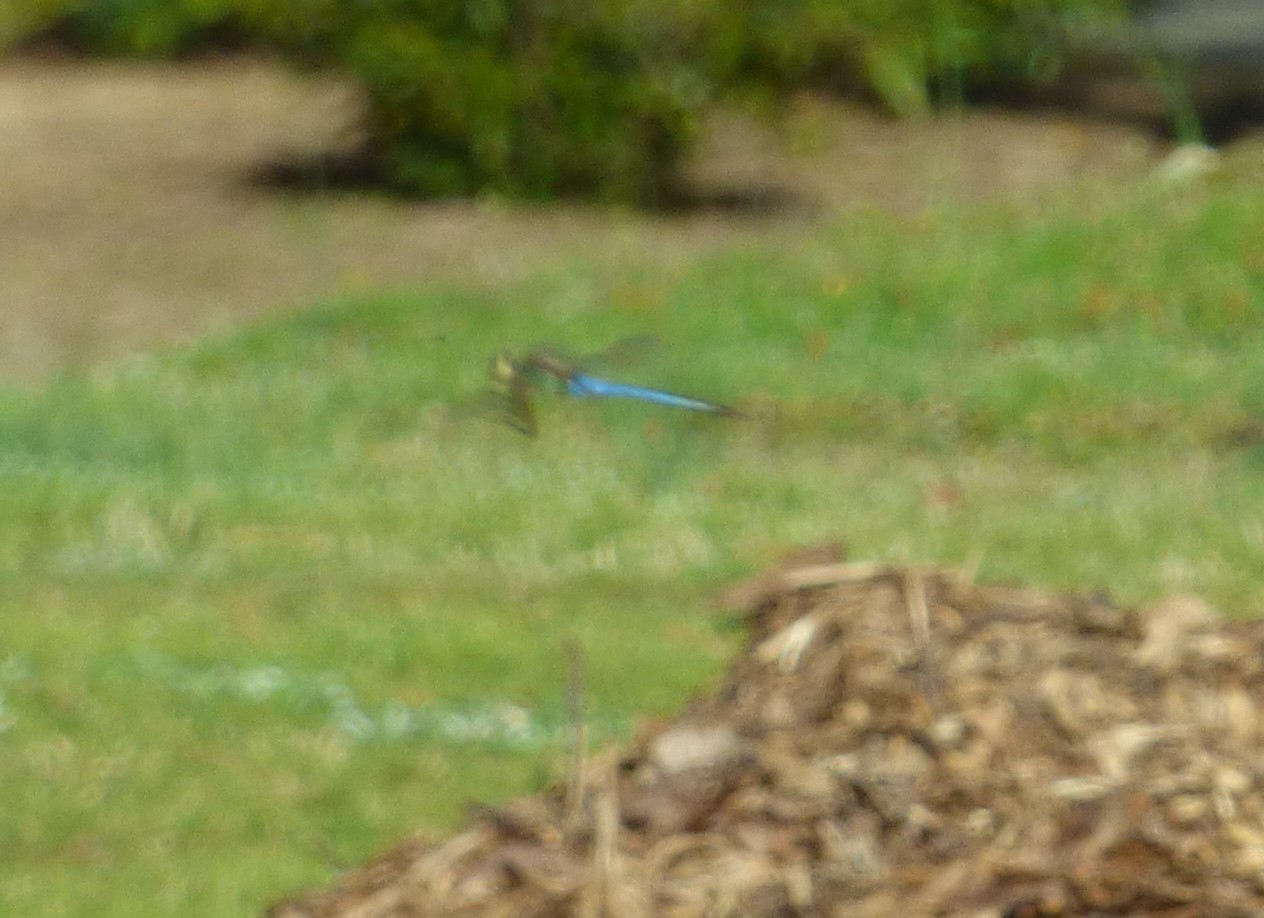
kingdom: Animalia
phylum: Arthropoda
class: Insecta
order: Odonata
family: Aeshnidae
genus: Anax
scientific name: Anax junius
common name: Common green darner
